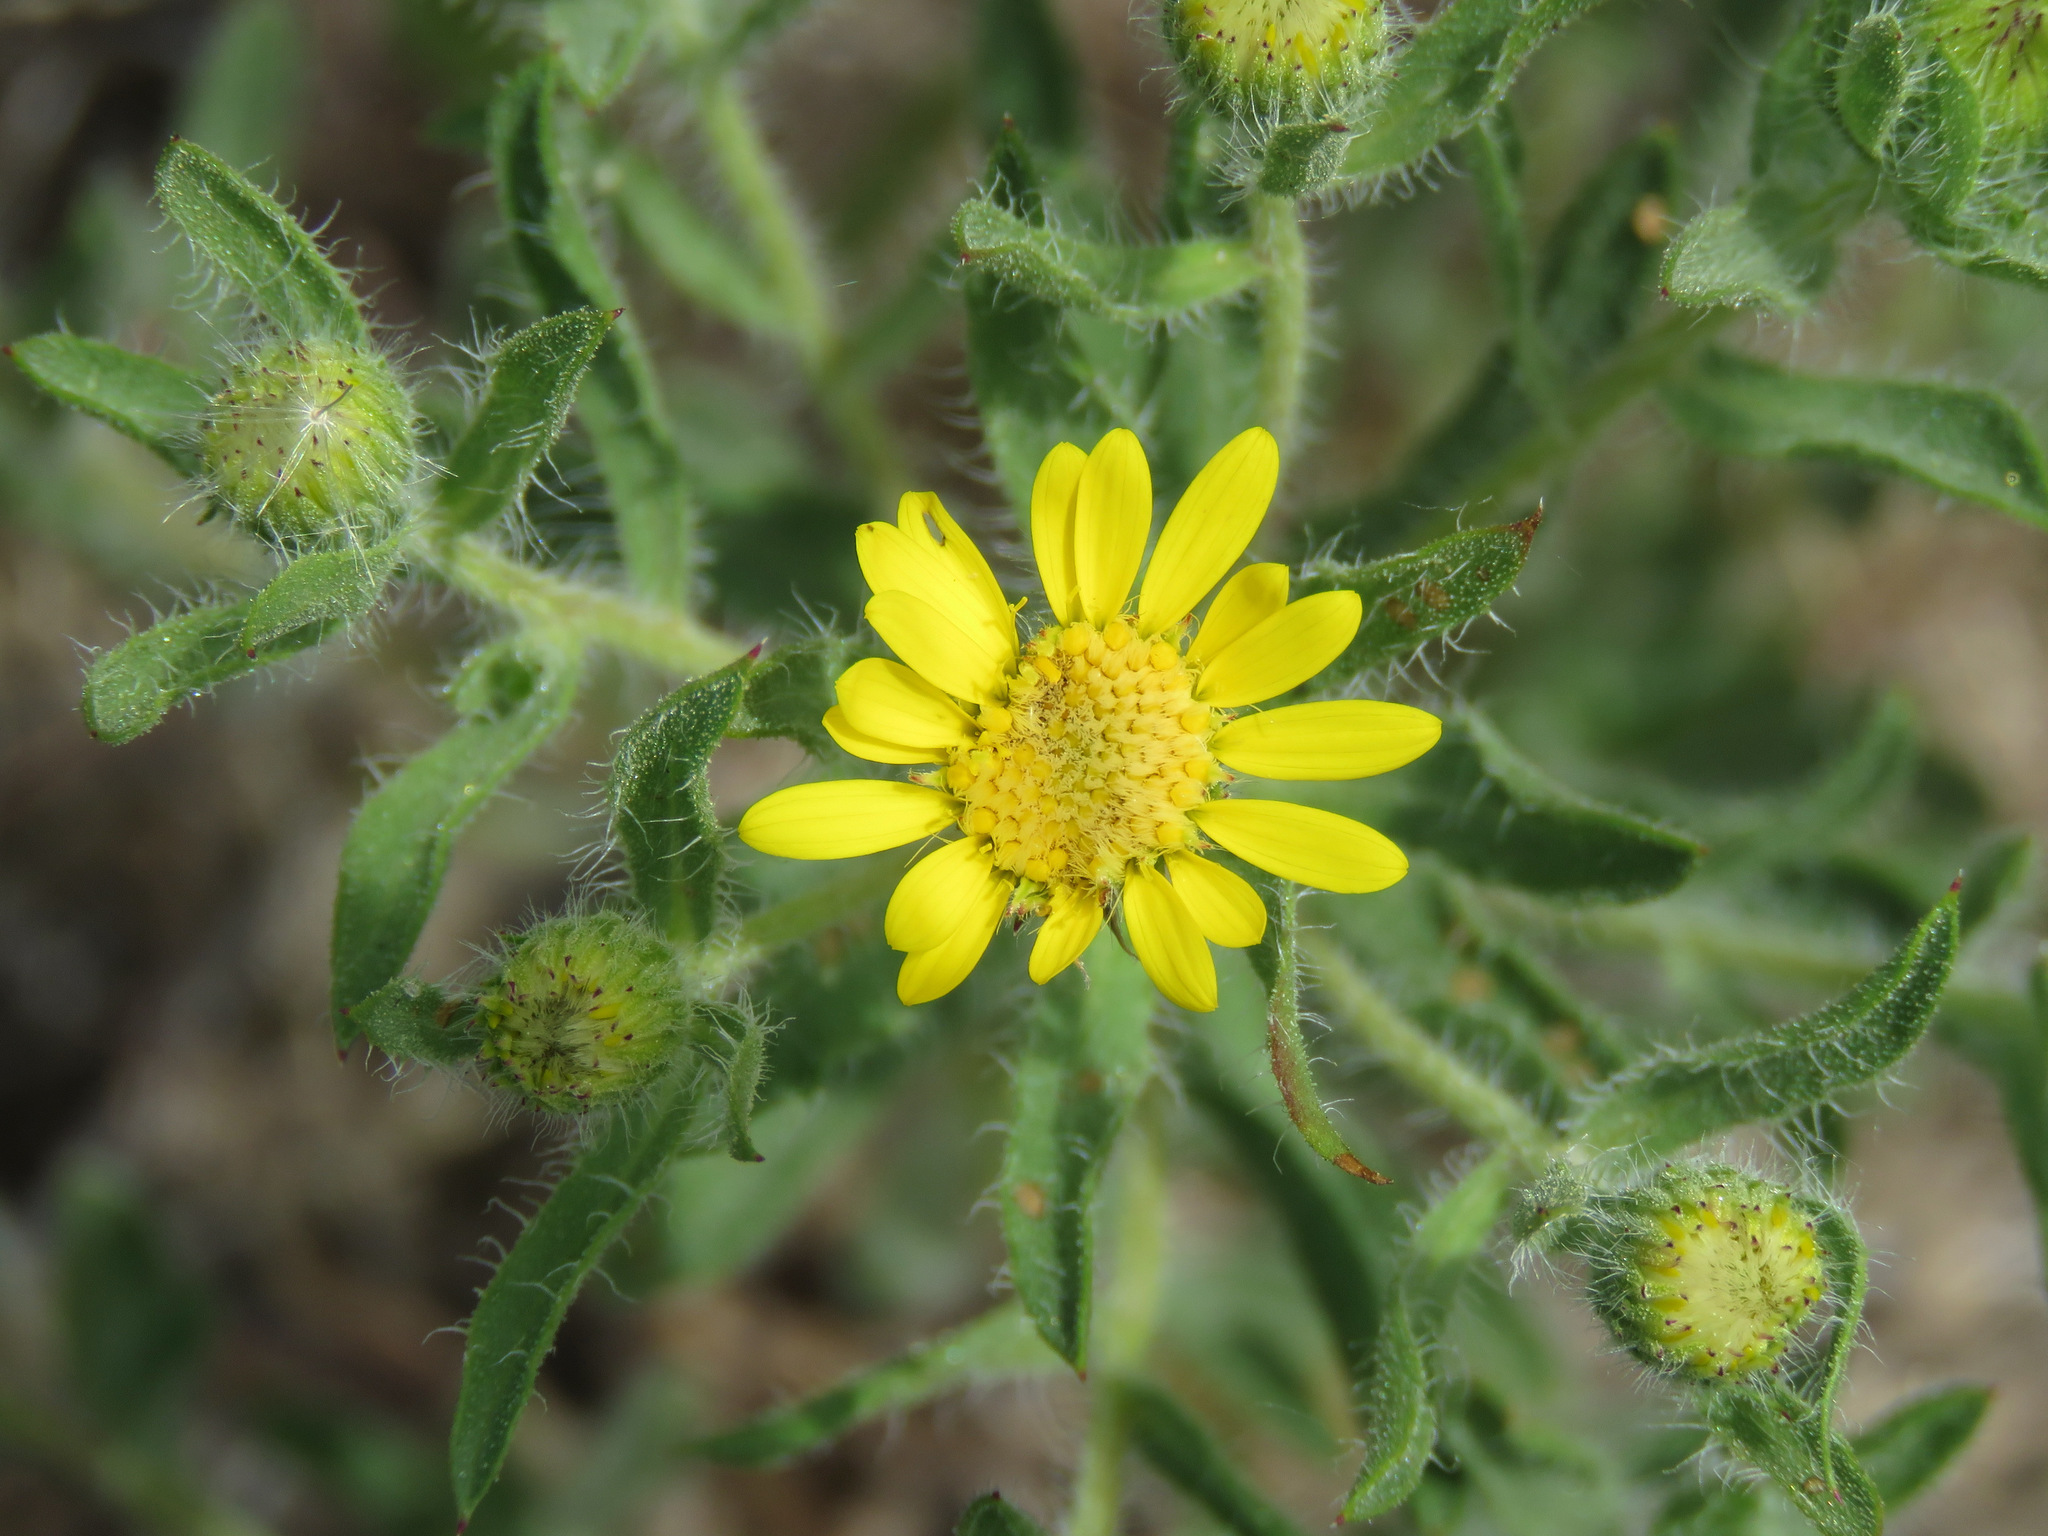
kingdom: Plantae
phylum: Tracheophyta
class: Magnoliopsida
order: Asterales
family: Asteraceae
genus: Heterotheca
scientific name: Heterotheca villosa
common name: Hairy false goldenaster
